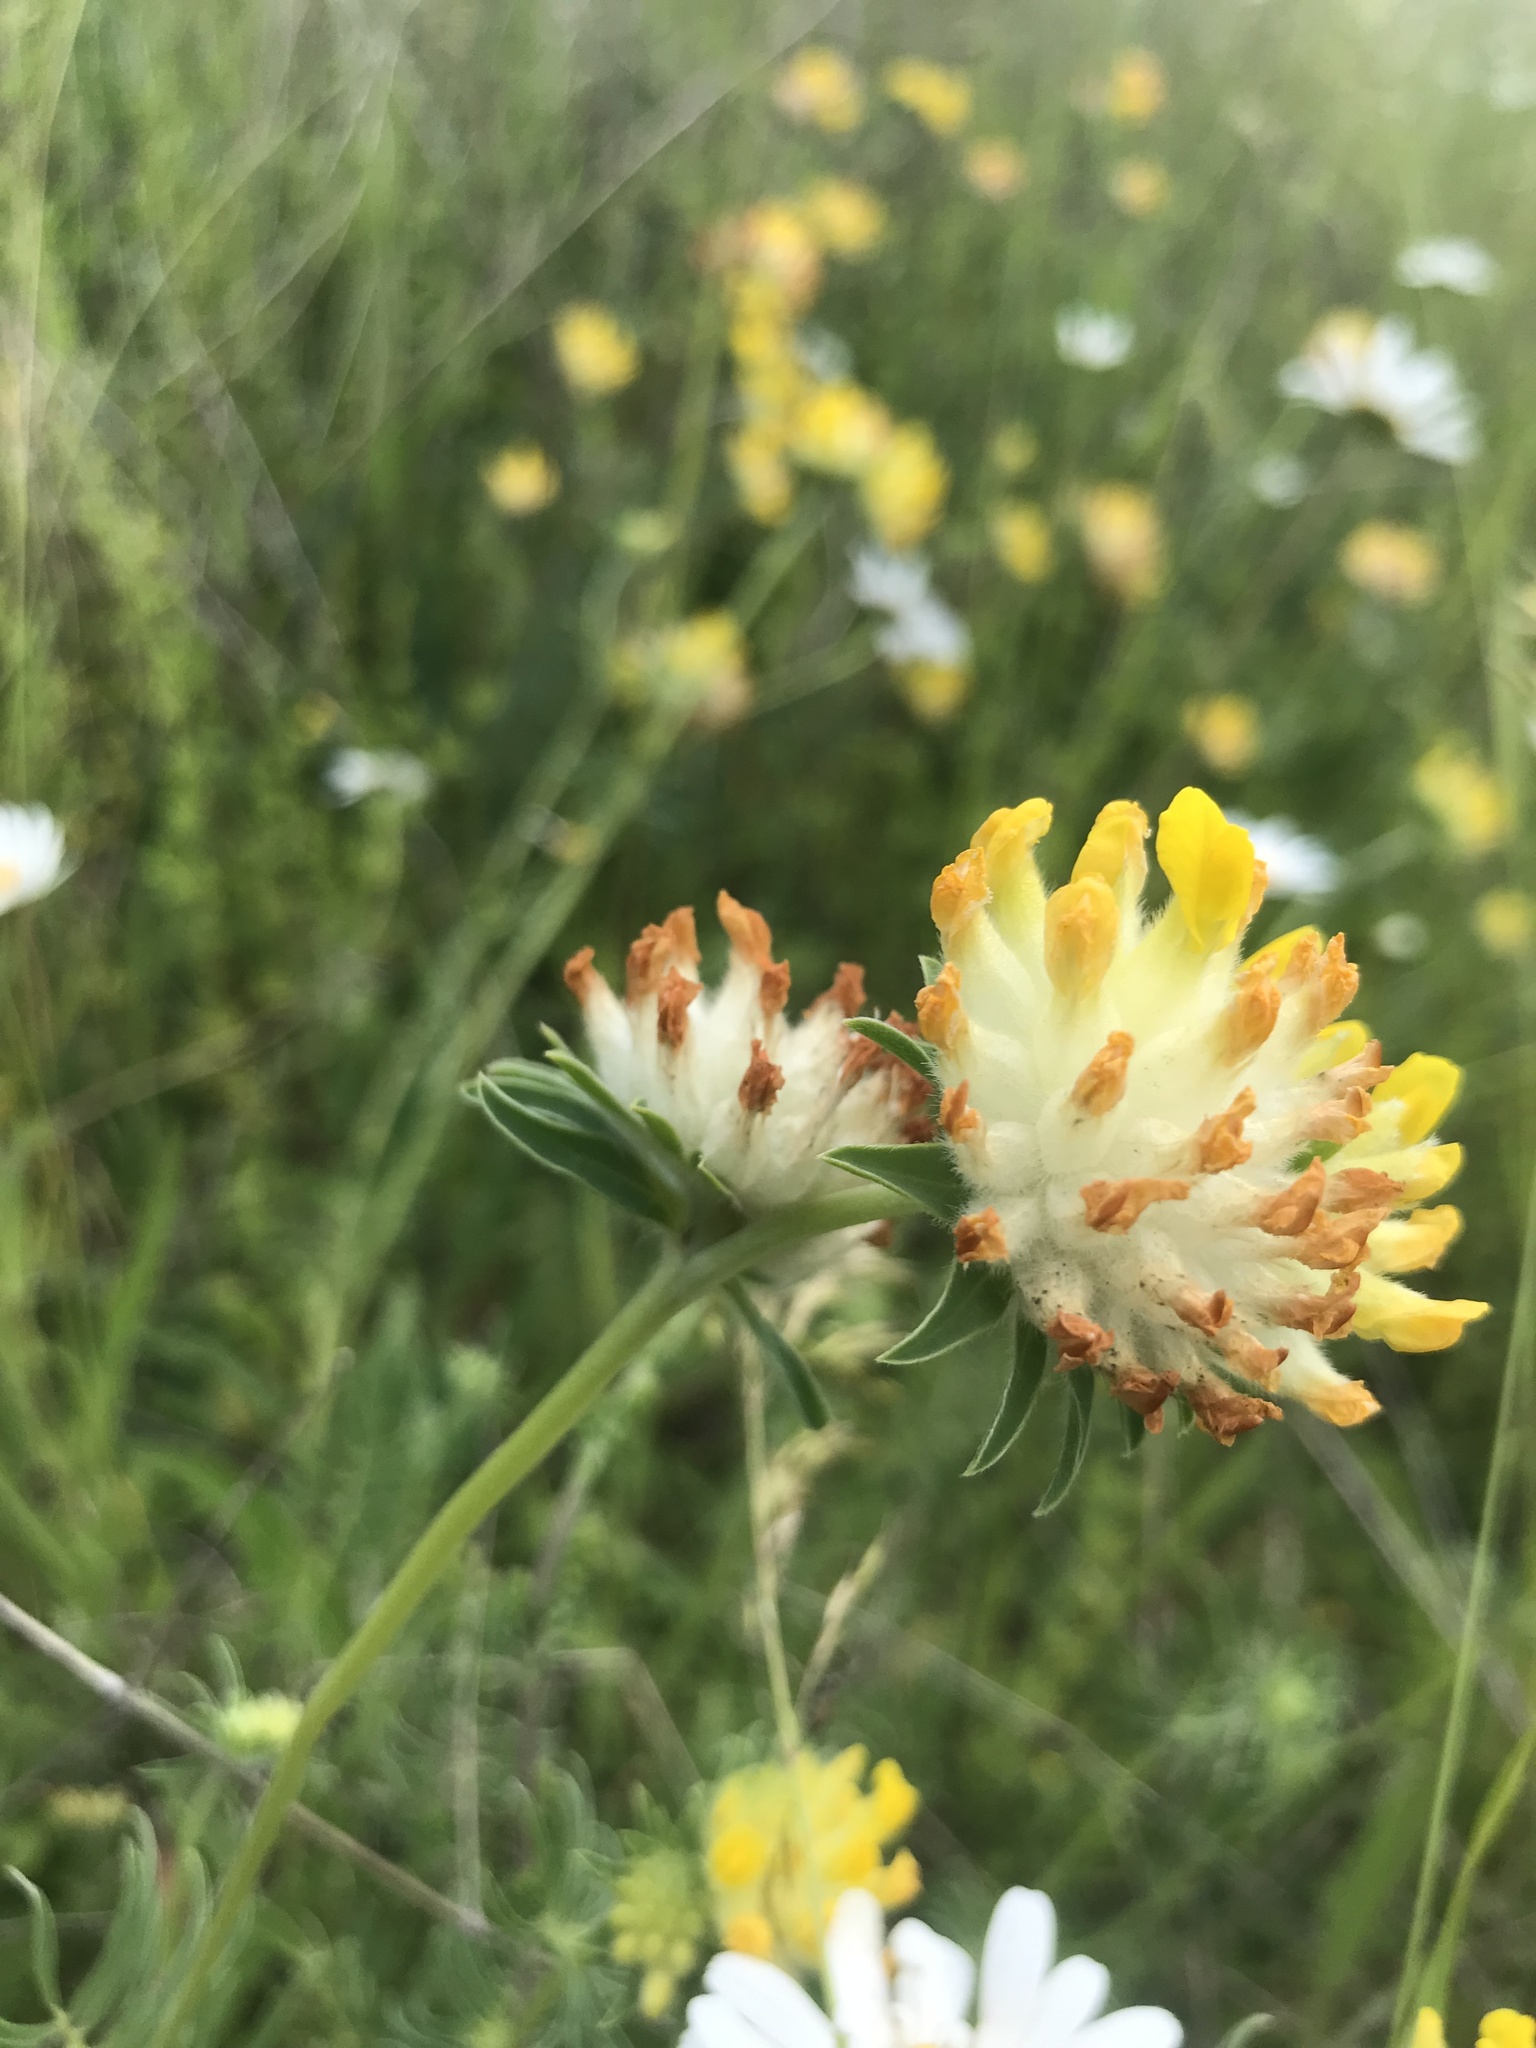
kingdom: Plantae
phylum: Tracheophyta
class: Magnoliopsida
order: Fabales
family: Fabaceae
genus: Anthyllis
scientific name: Anthyllis vulneraria
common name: Kidney vetch
